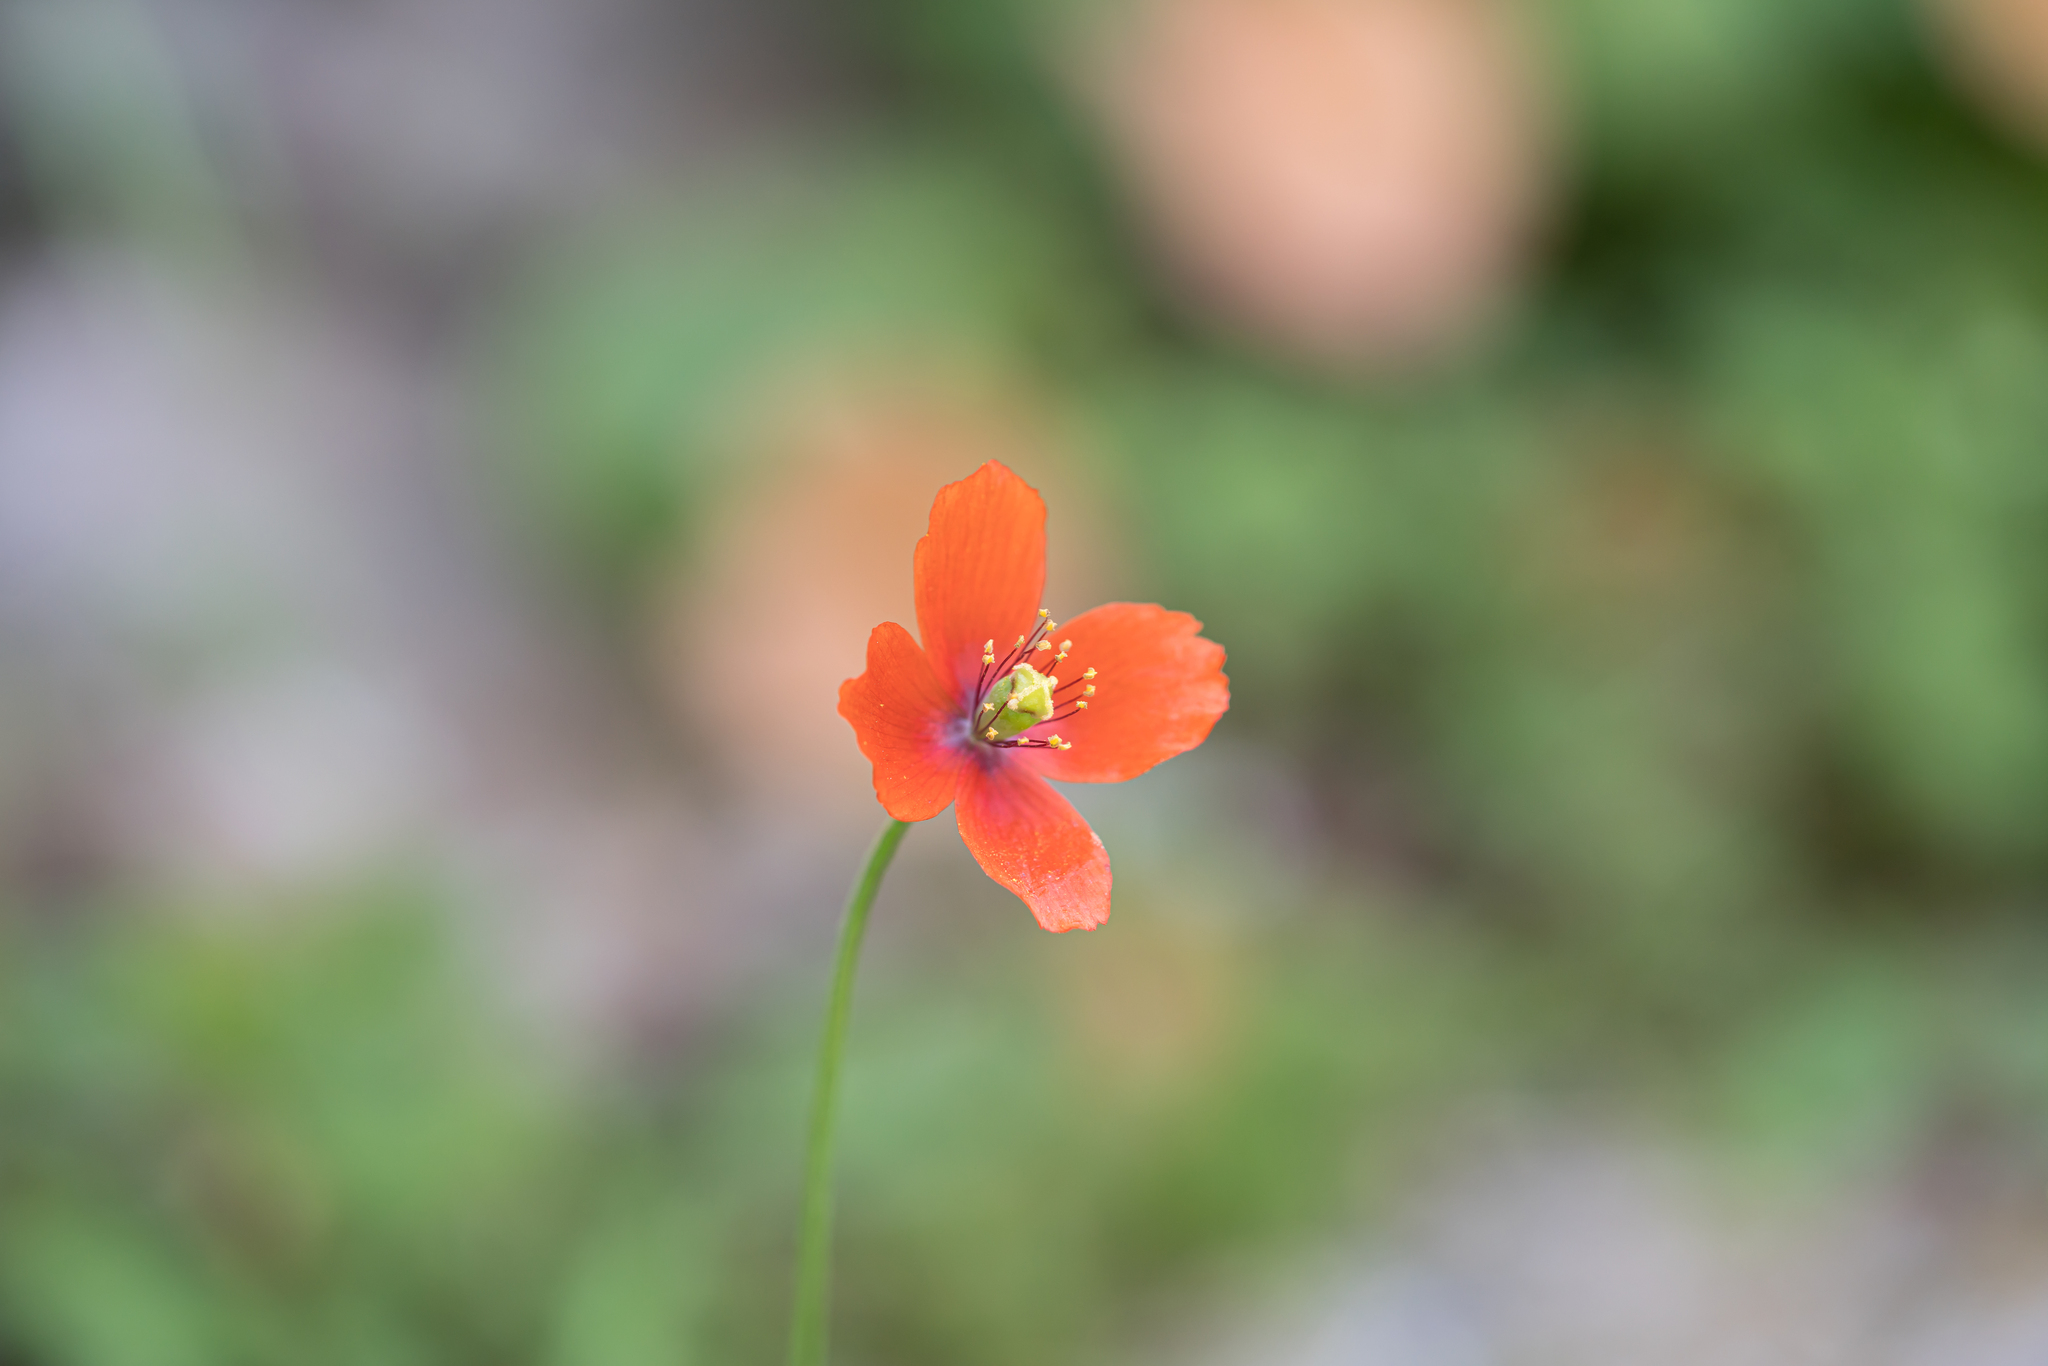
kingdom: Plantae
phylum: Tracheophyta
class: Magnoliopsida
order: Ranunculales
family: Papaveraceae
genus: Papaver
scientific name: Papaver purpureomarginatum
